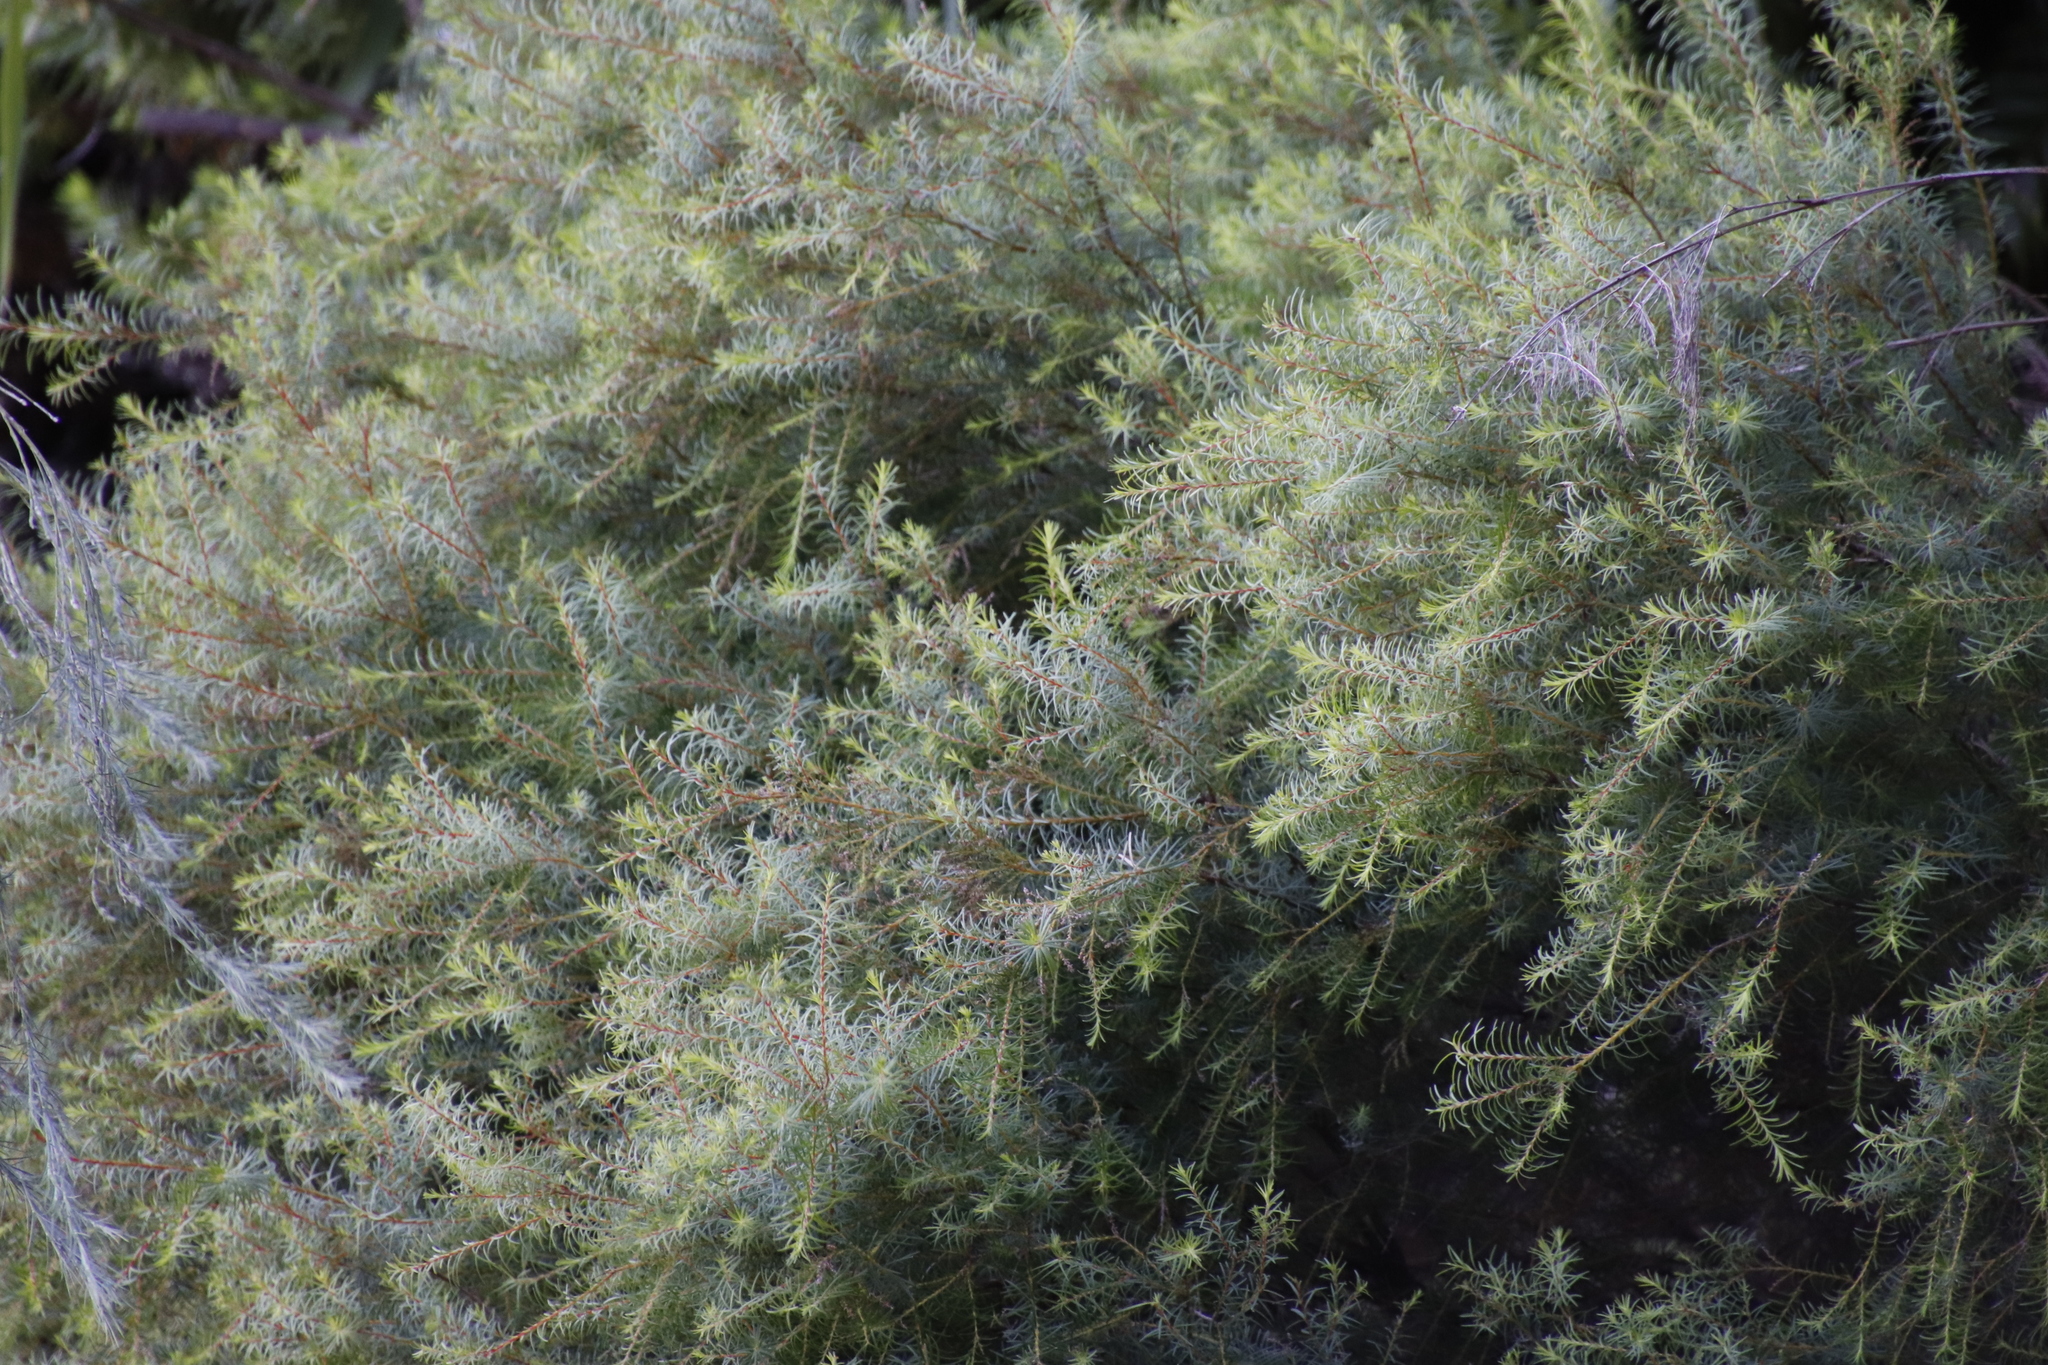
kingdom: Plantae
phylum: Tracheophyta
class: Magnoliopsida
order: Bruniales
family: Bruniaceae
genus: Brunia
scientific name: Brunia africana
